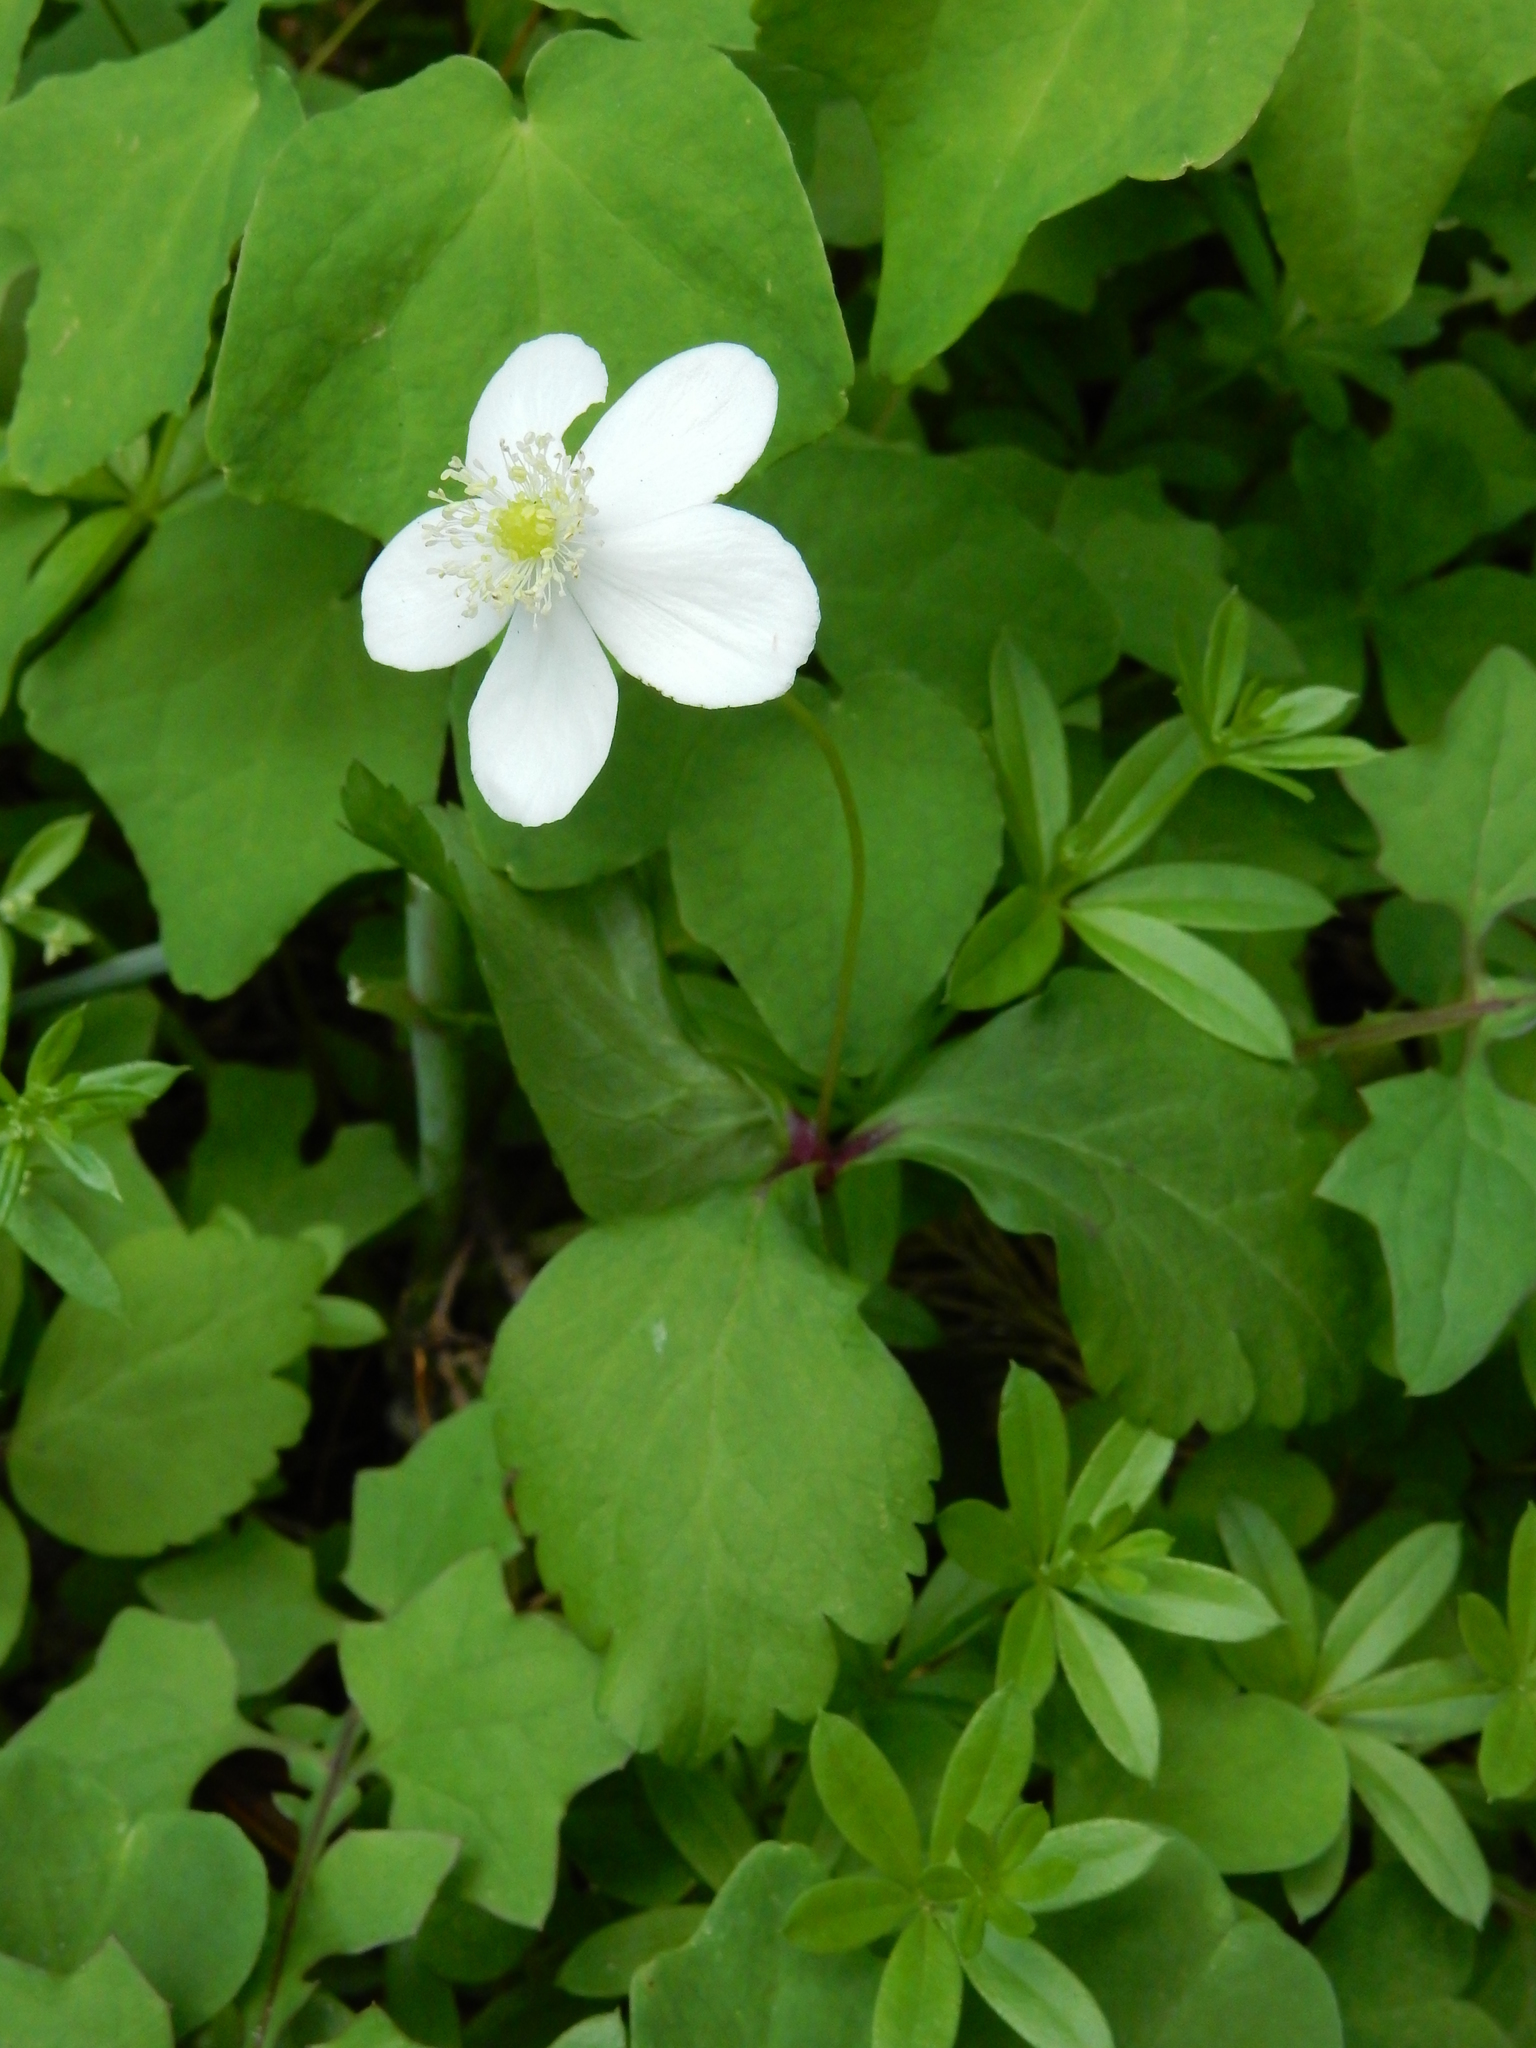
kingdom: Plantae
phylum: Tracheophyta
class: Magnoliopsida
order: Ranunculales
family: Ranunculaceae
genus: Anemonastrum
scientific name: Anemonastrum deltoideum
